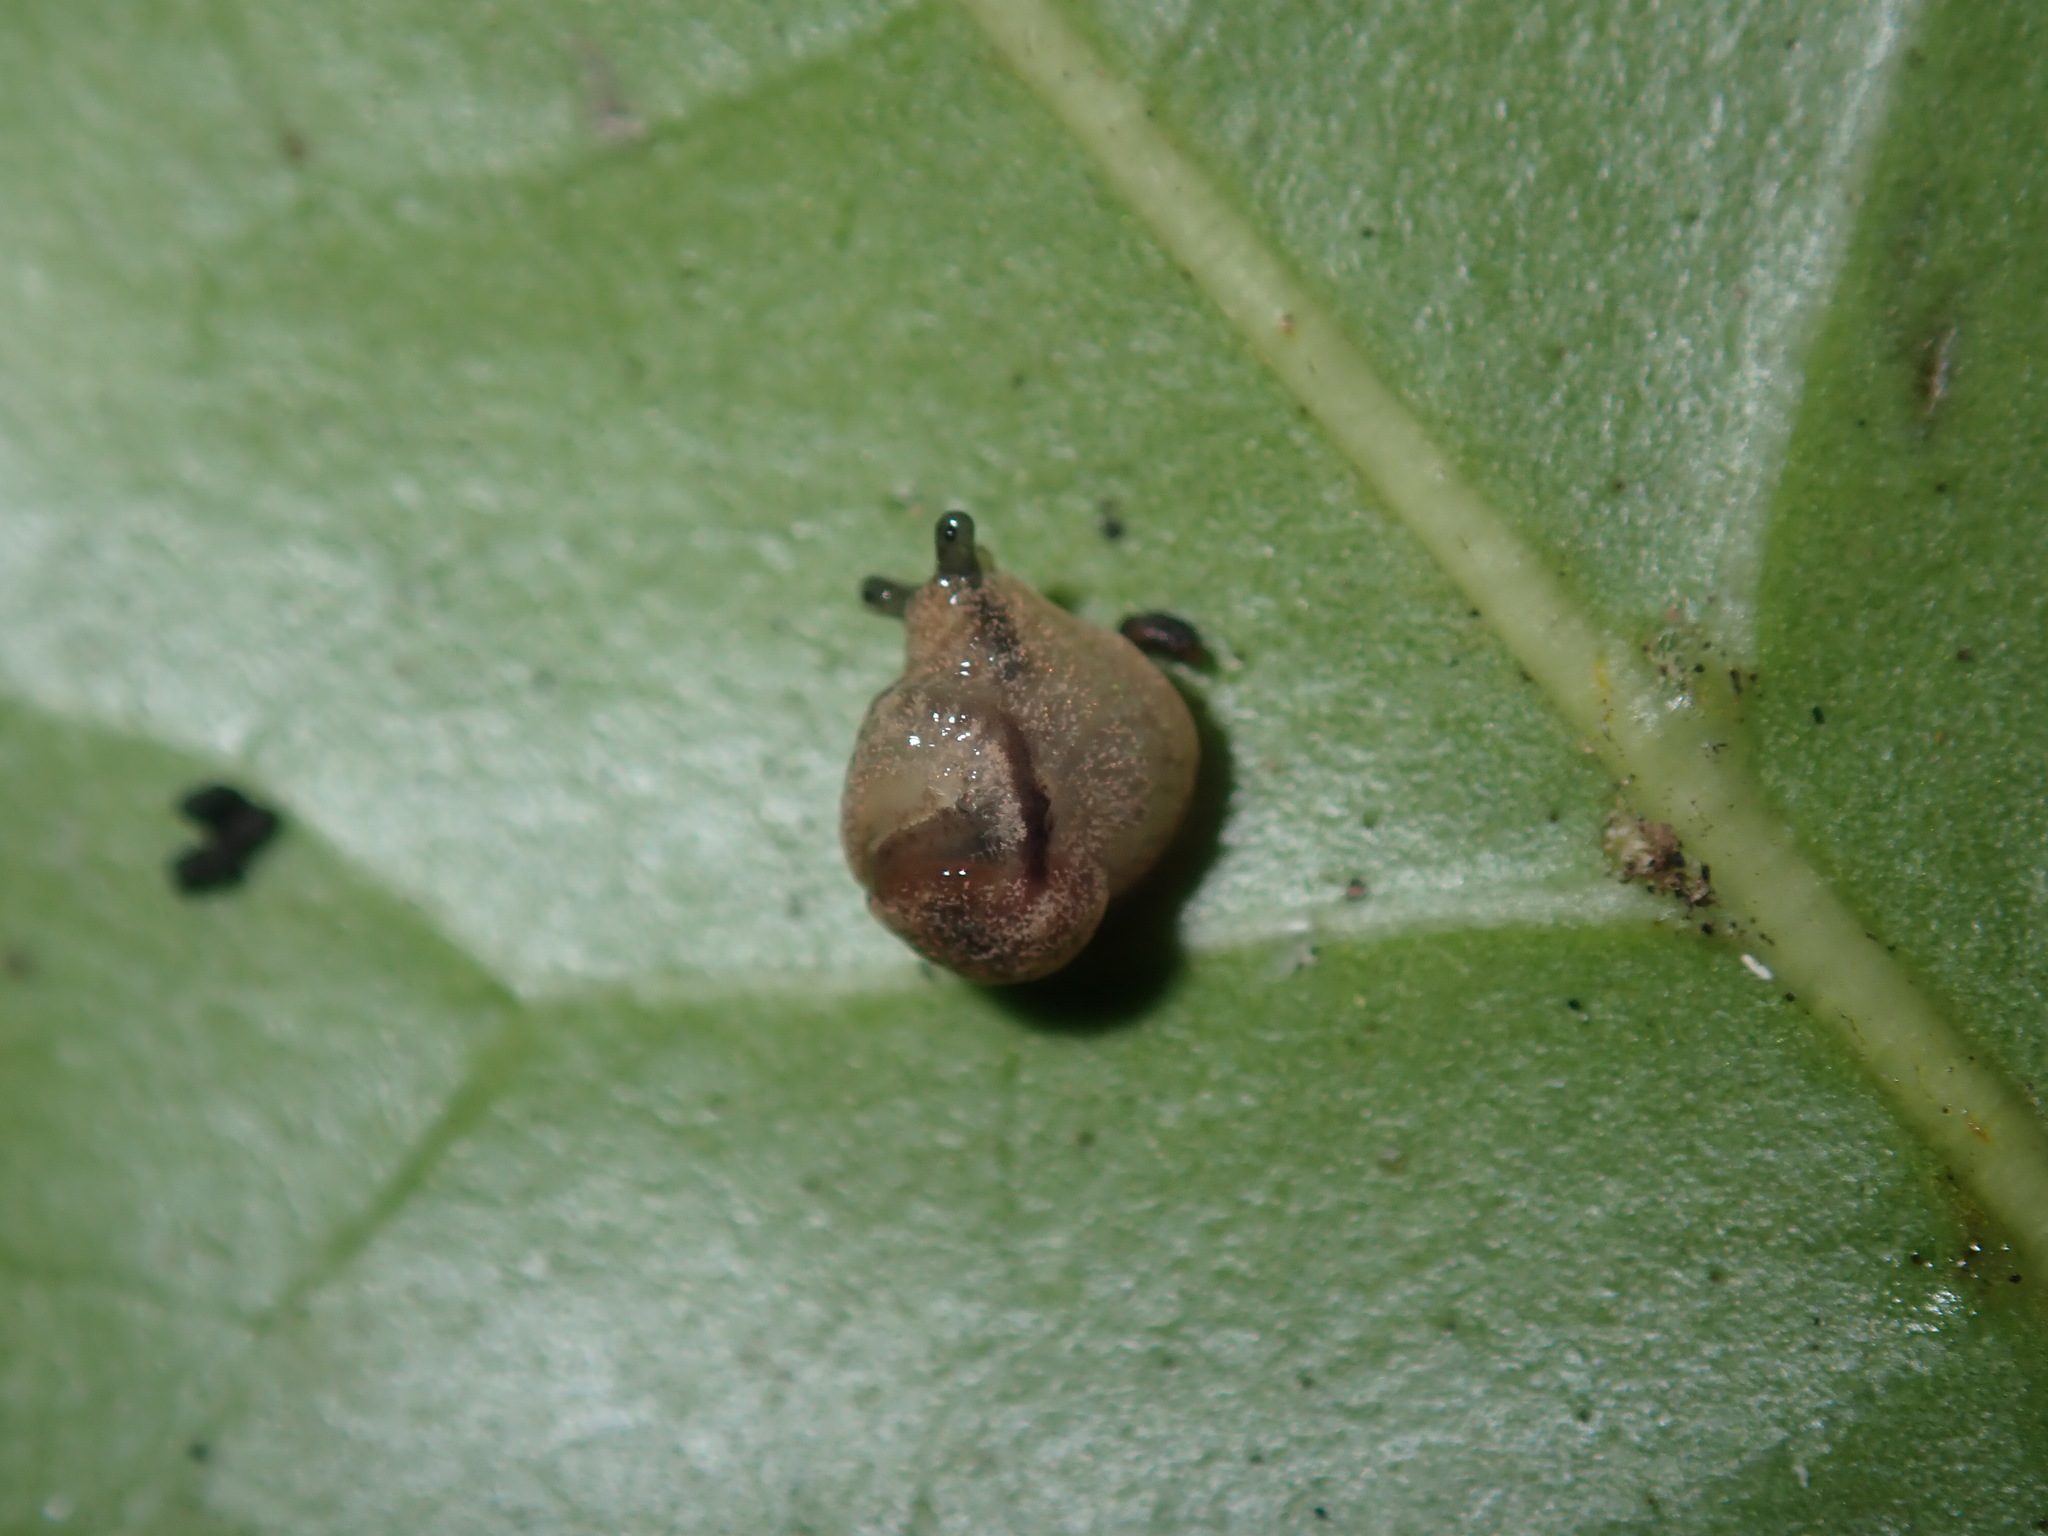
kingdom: Animalia
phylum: Mollusca
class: Gastropoda
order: Stylommatophora
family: Helicarionidae
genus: Ubiquitarion
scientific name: Ubiquitarion iridis
